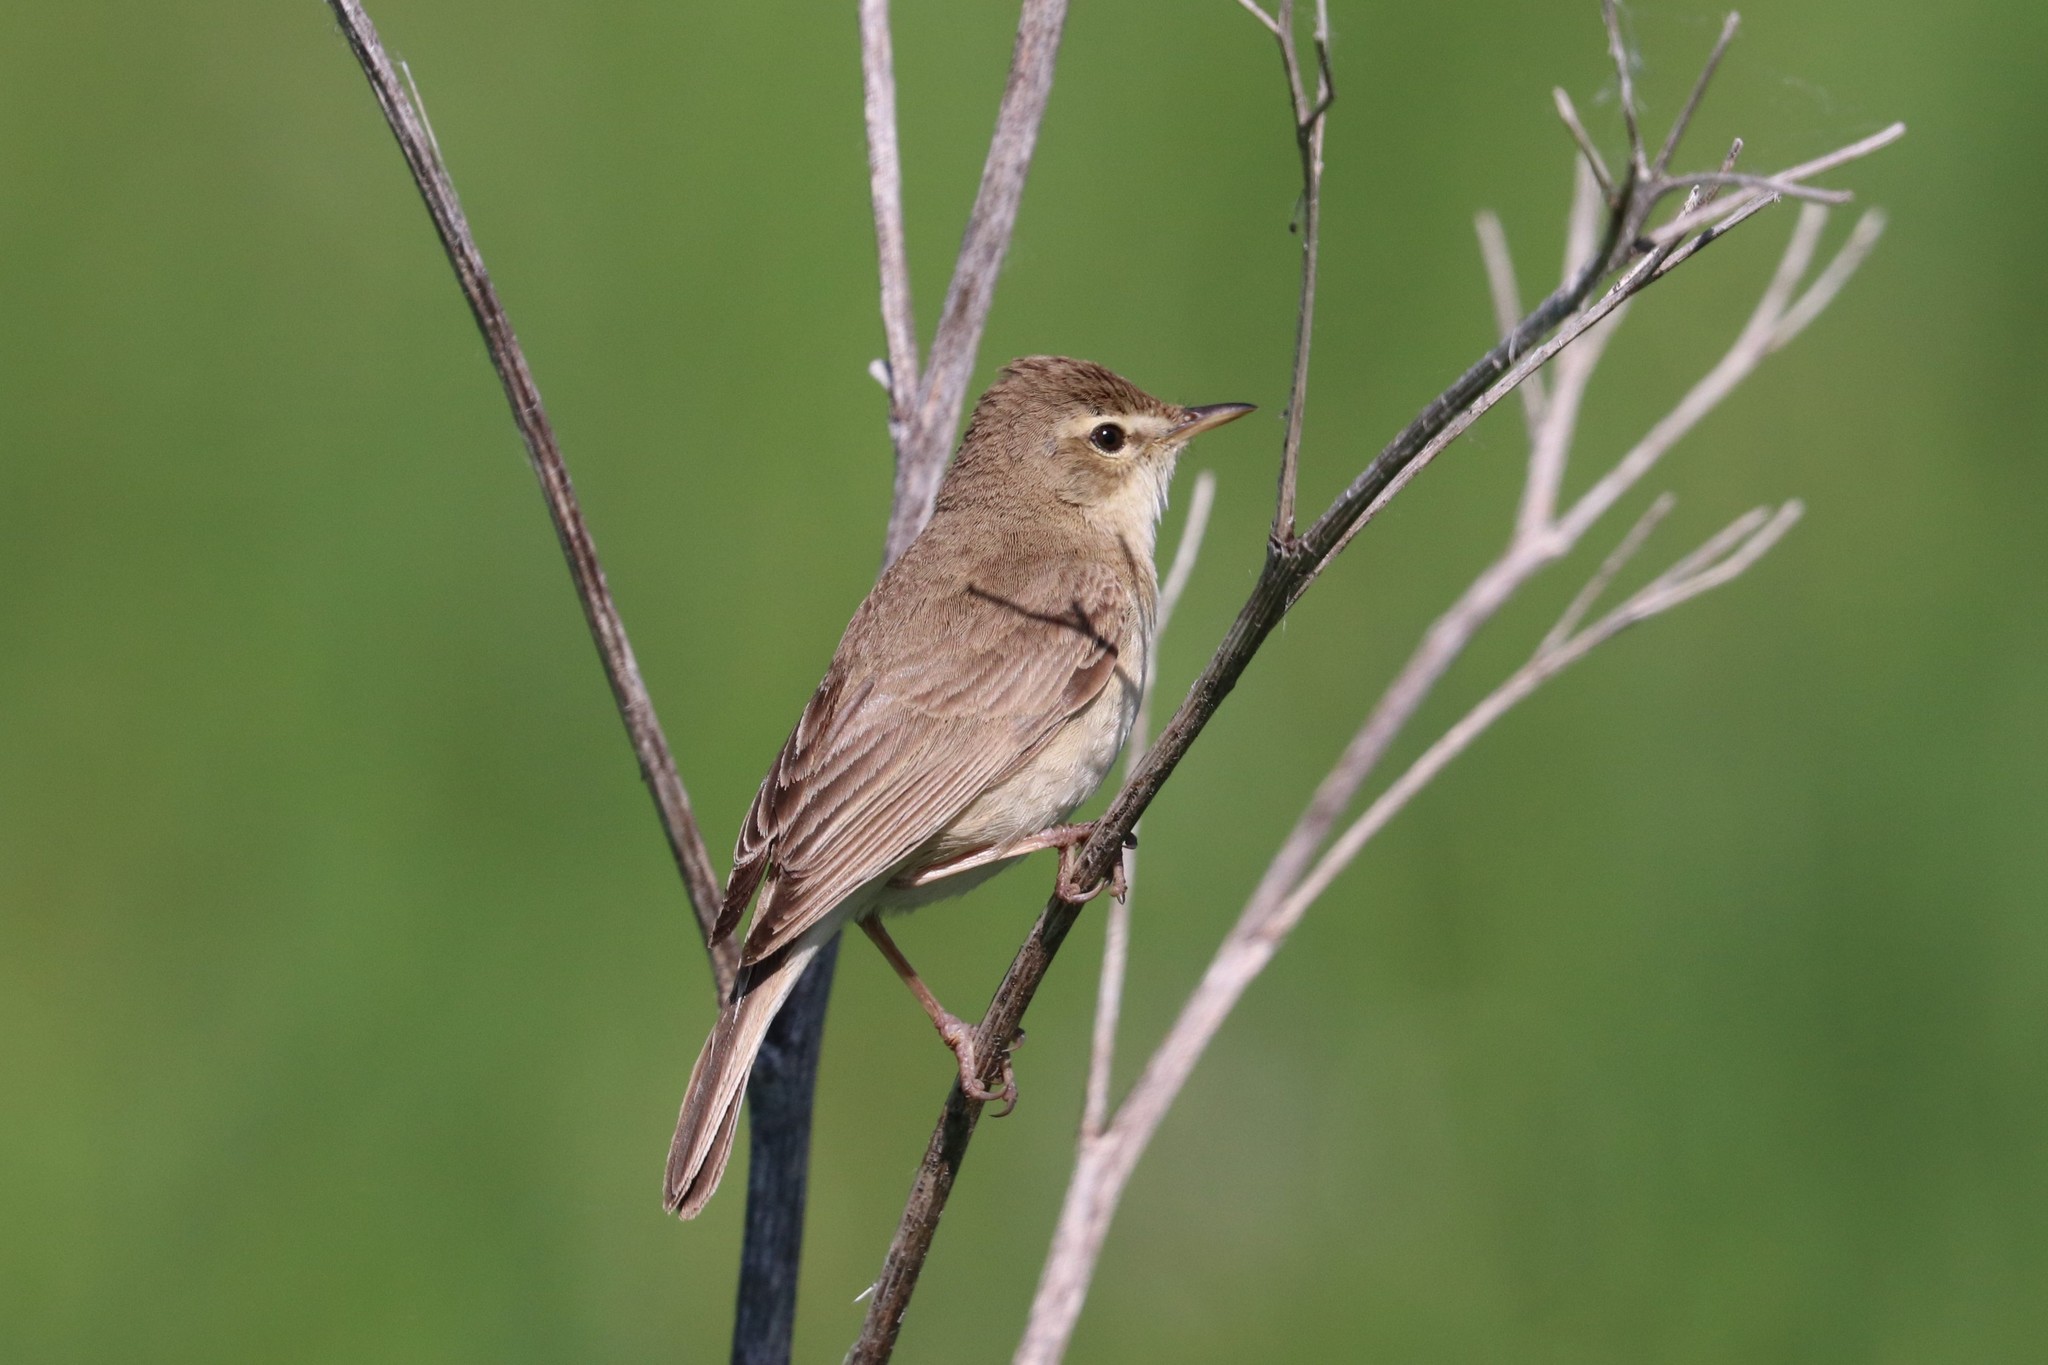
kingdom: Animalia
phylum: Chordata
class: Aves
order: Passeriformes
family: Acrocephalidae
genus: Iduna
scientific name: Iduna caligata
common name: Booted warbler
